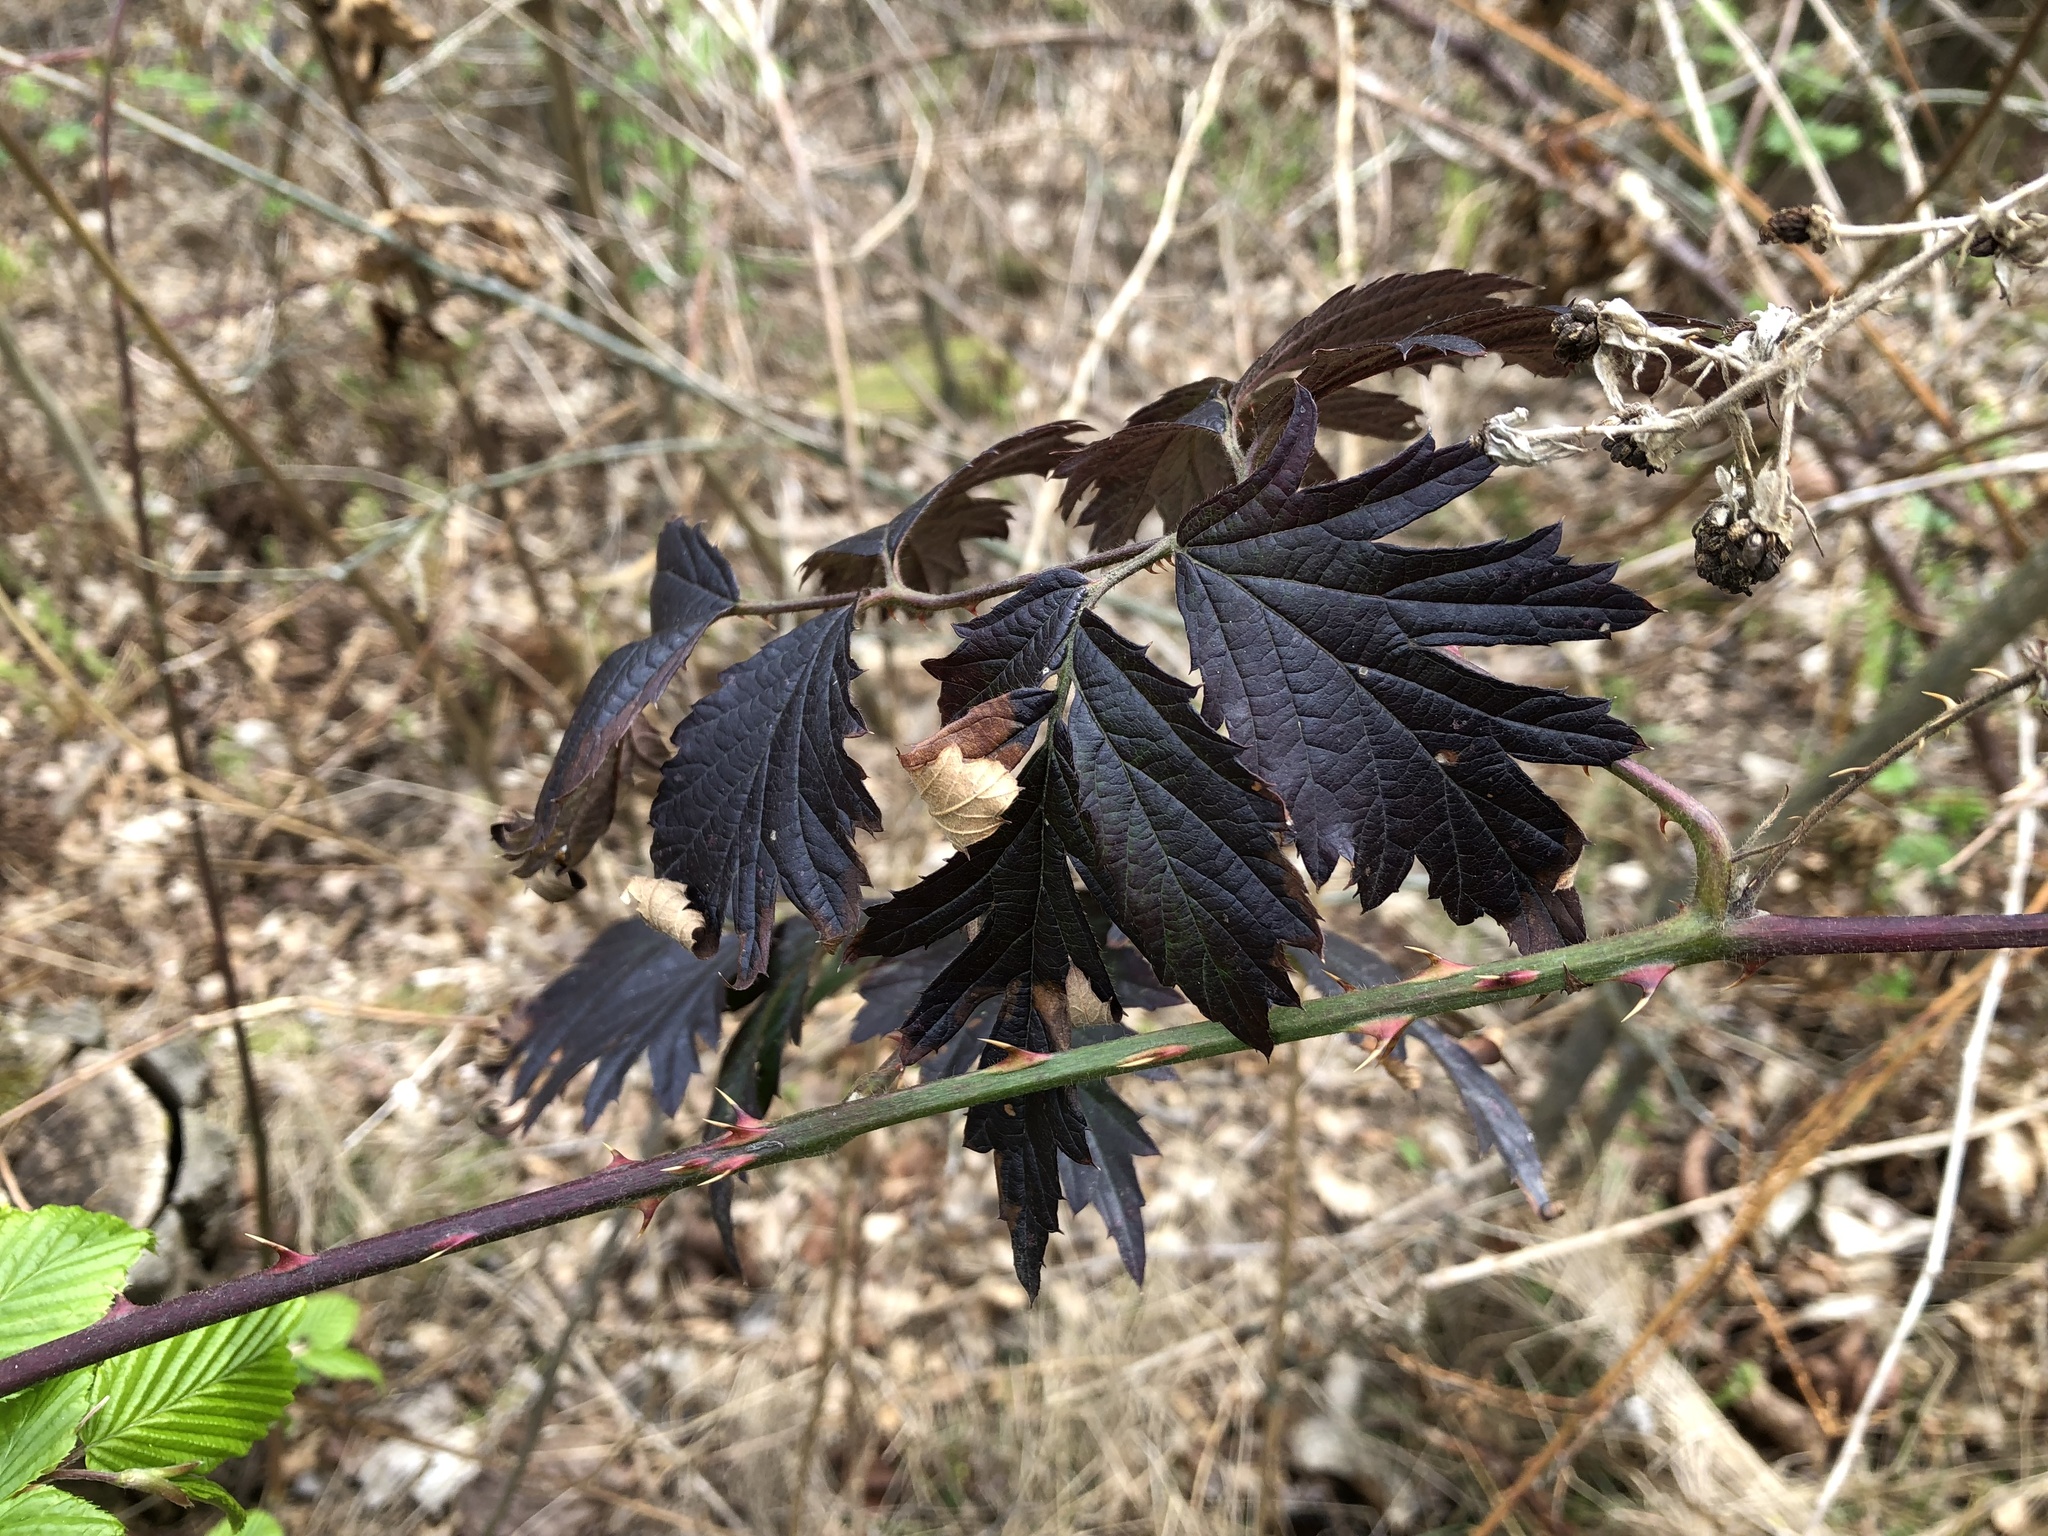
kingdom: Plantae
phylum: Tracheophyta
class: Magnoliopsida
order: Rosales
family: Rosaceae
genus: Rubus
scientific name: Rubus laciniatus
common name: Evergreen blackberry
